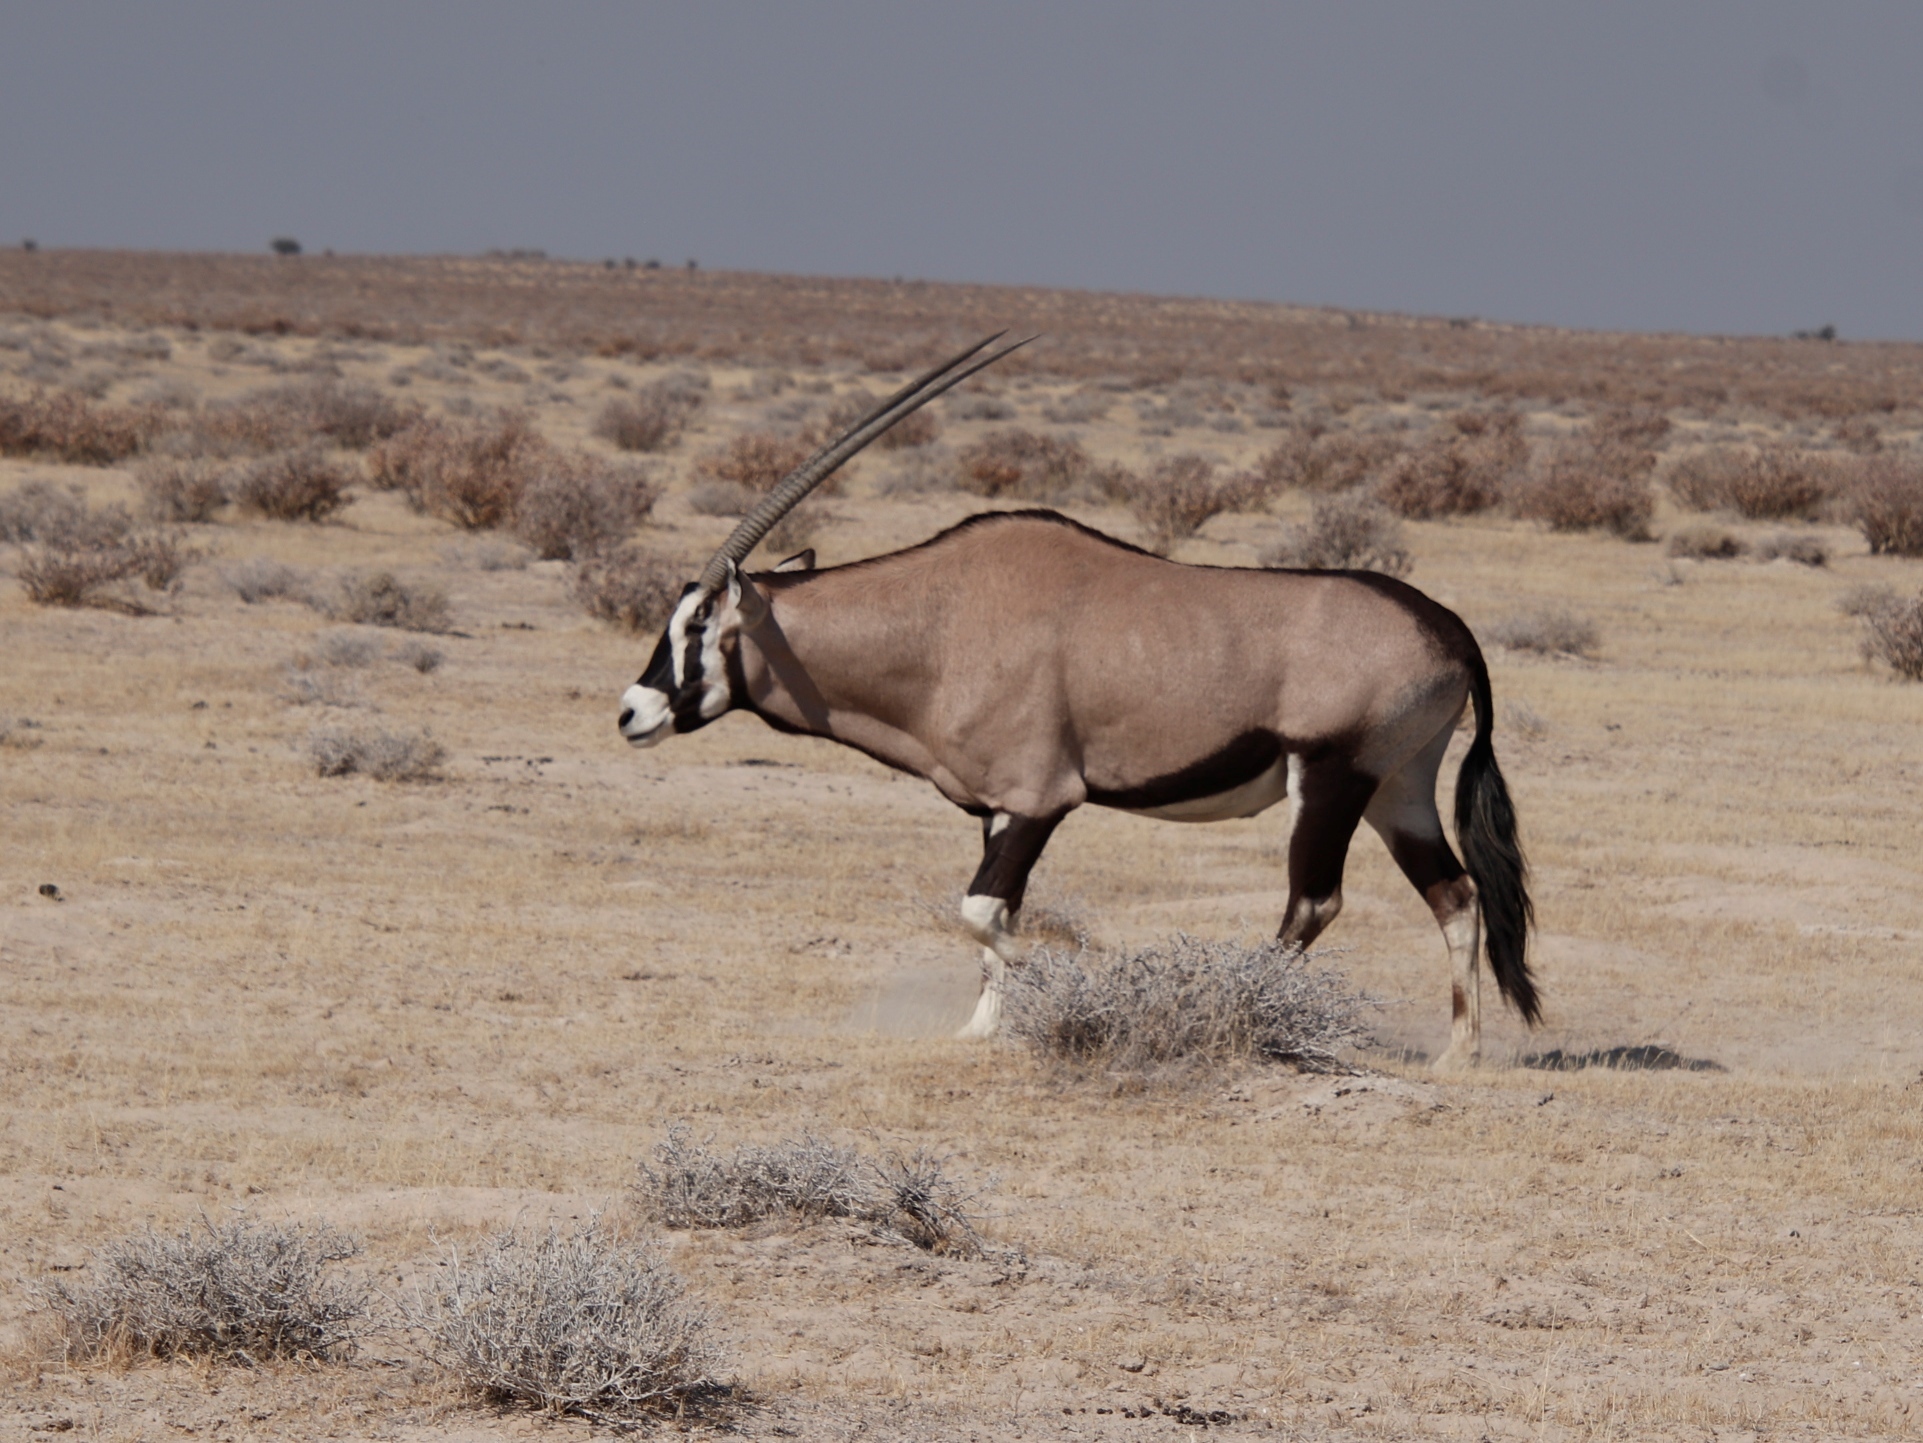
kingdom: Animalia
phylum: Chordata
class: Mammalia
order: Artiodactyla
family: Bovidae
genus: Oryx
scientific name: Oryx gazella
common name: Gemsbok
